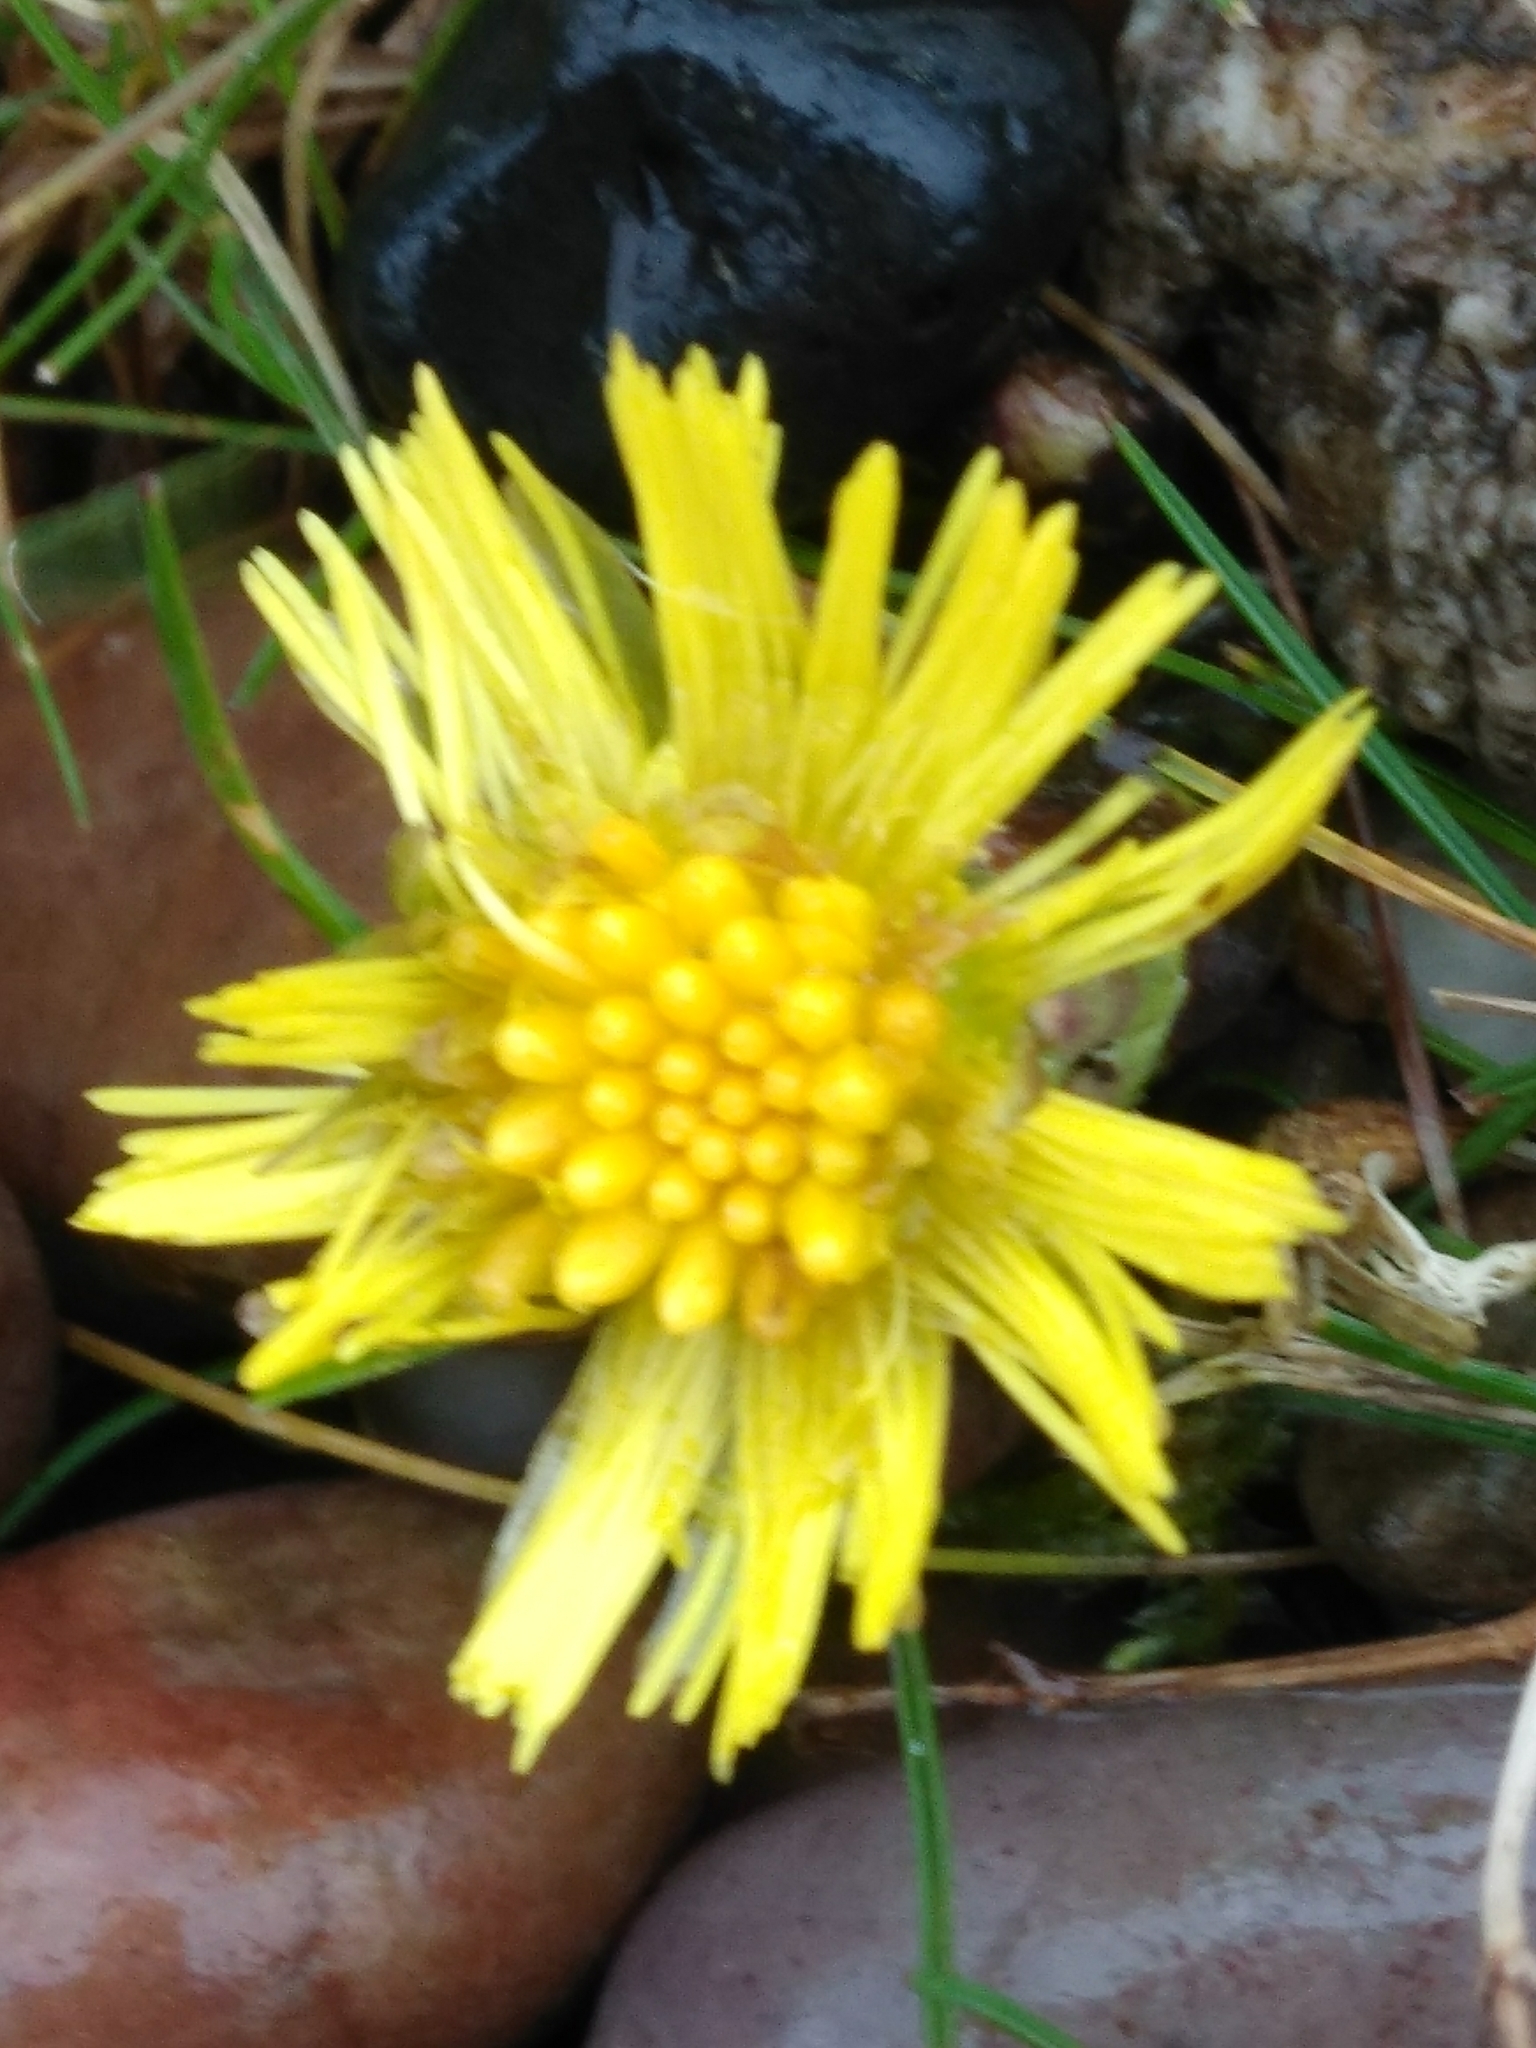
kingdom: Plantae
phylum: Tracheophyta
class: Magnoliopsida
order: Asterales
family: Asteraceae
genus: Tussilago
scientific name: Tussilago farfara
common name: Coltsfoot
